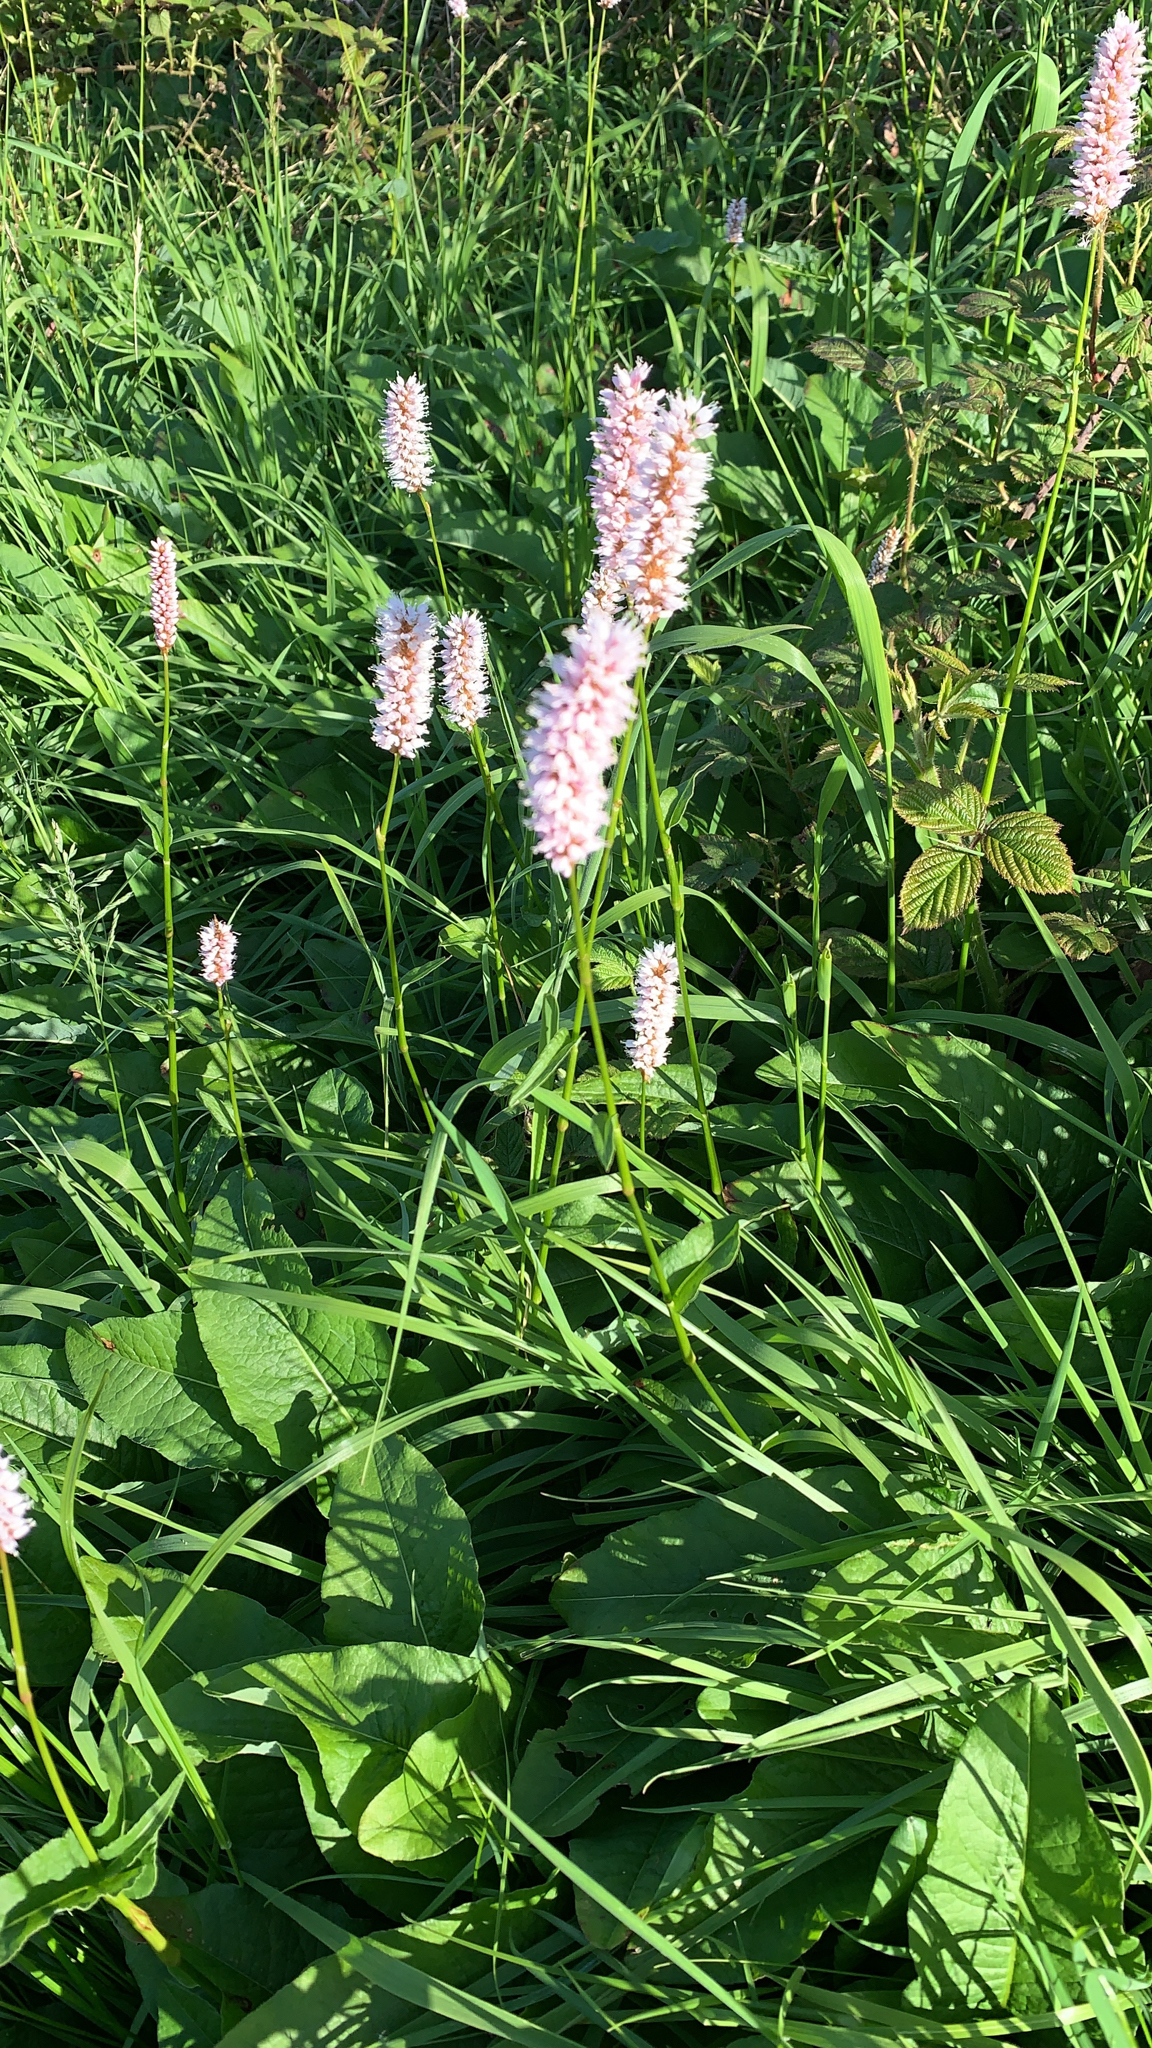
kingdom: Plantae
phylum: Tracheophyta
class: Magnoliopsida
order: Caryophyllales
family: Polygonaceae
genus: Bistorta
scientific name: Bistorta officinalis
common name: Common bistort
